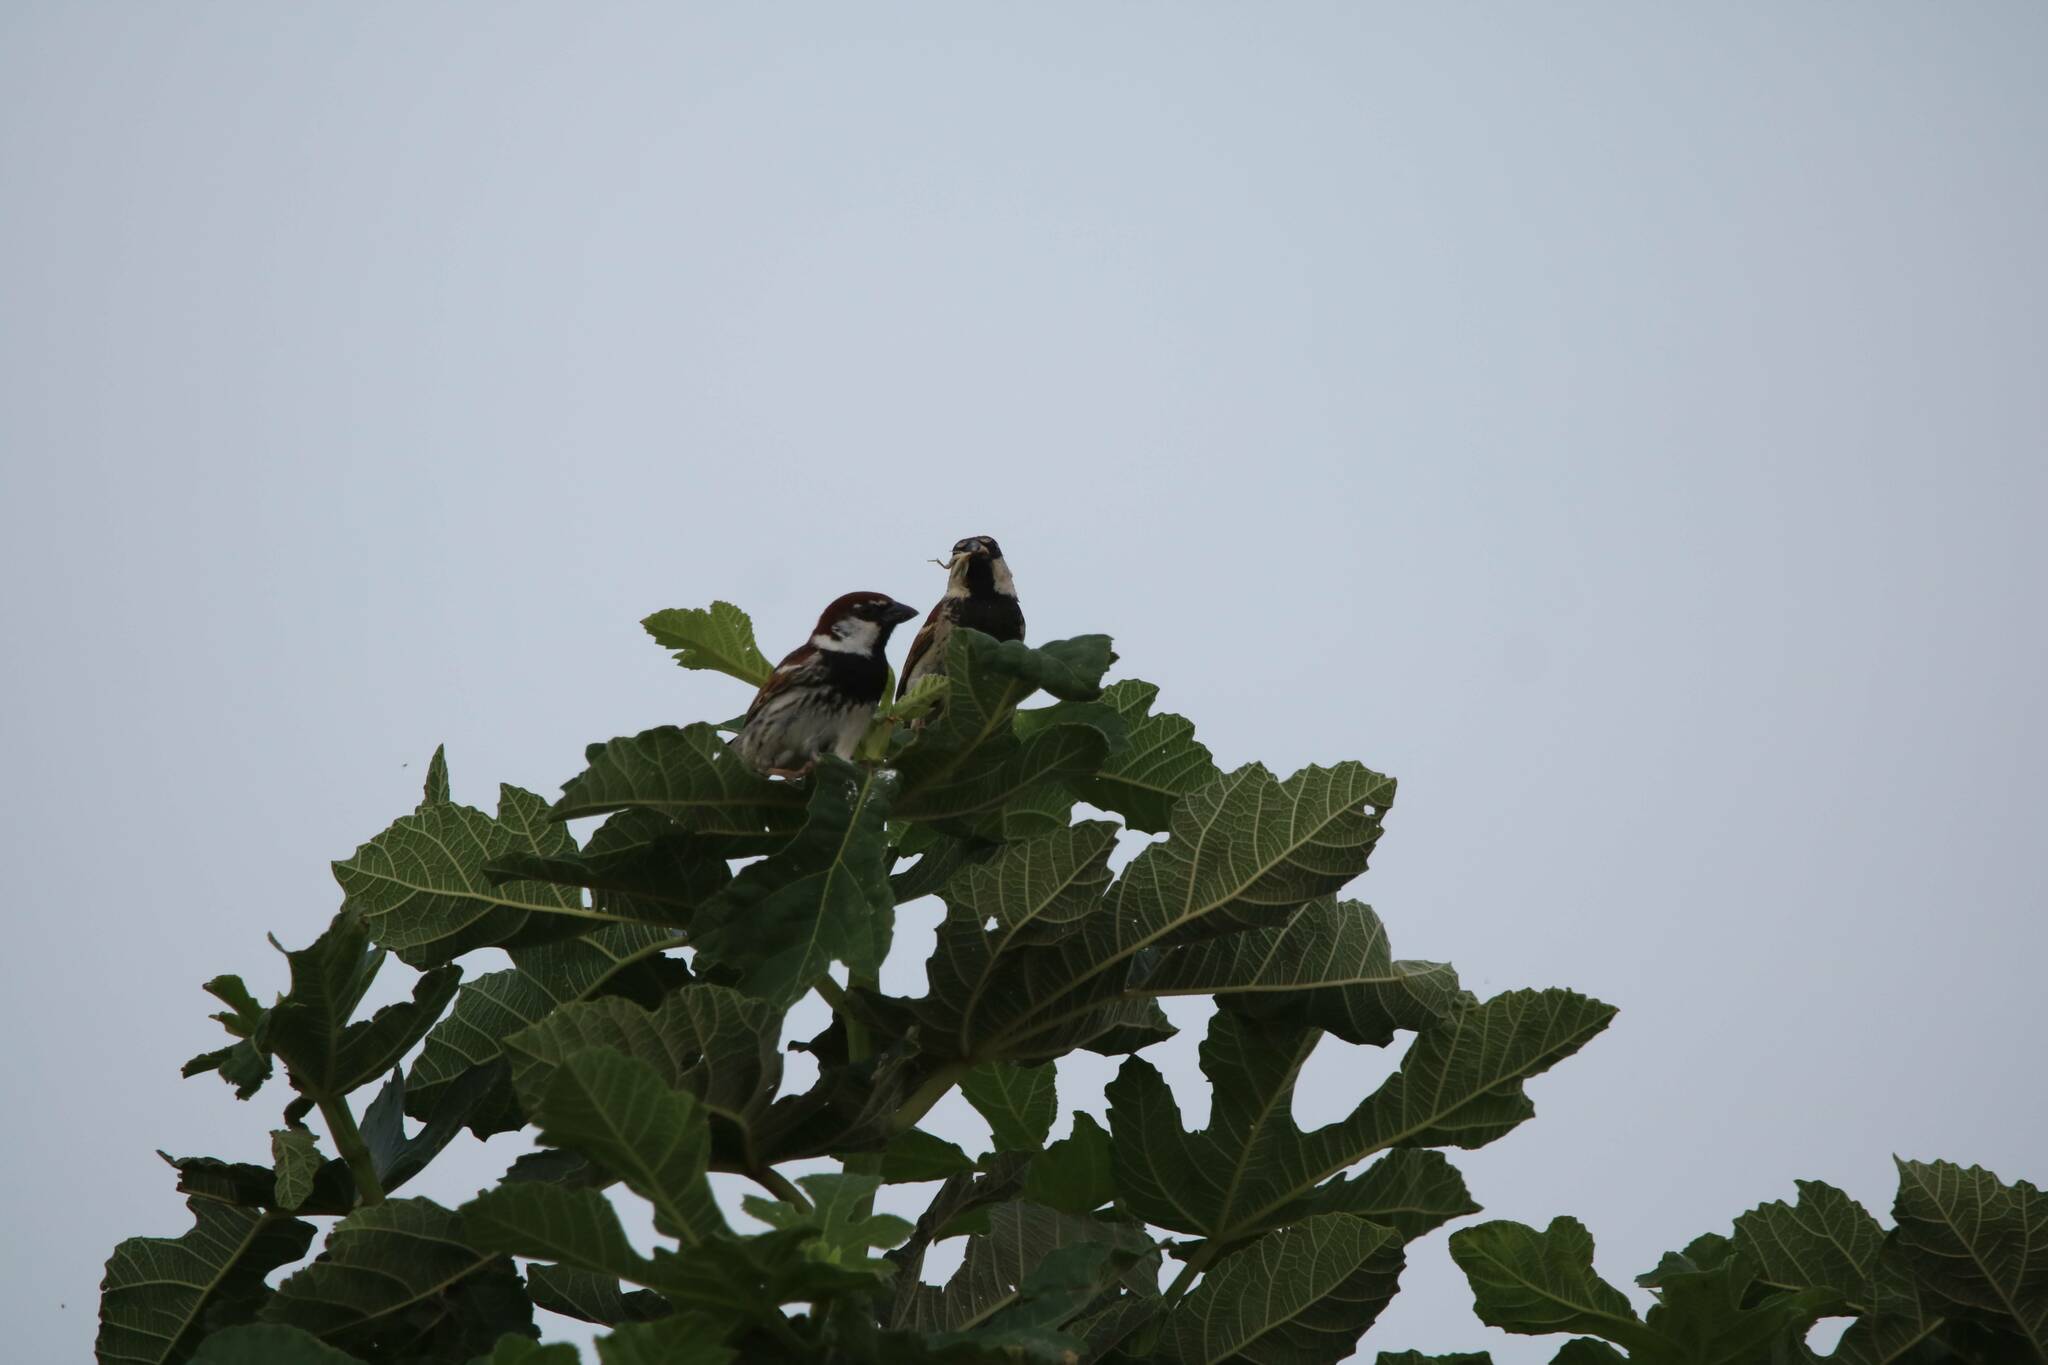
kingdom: Animalia
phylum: Chordata
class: Aves
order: Passeriformes
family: Passeridae
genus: Passer
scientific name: Passer hispaniolensis
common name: Spanish sparrow
